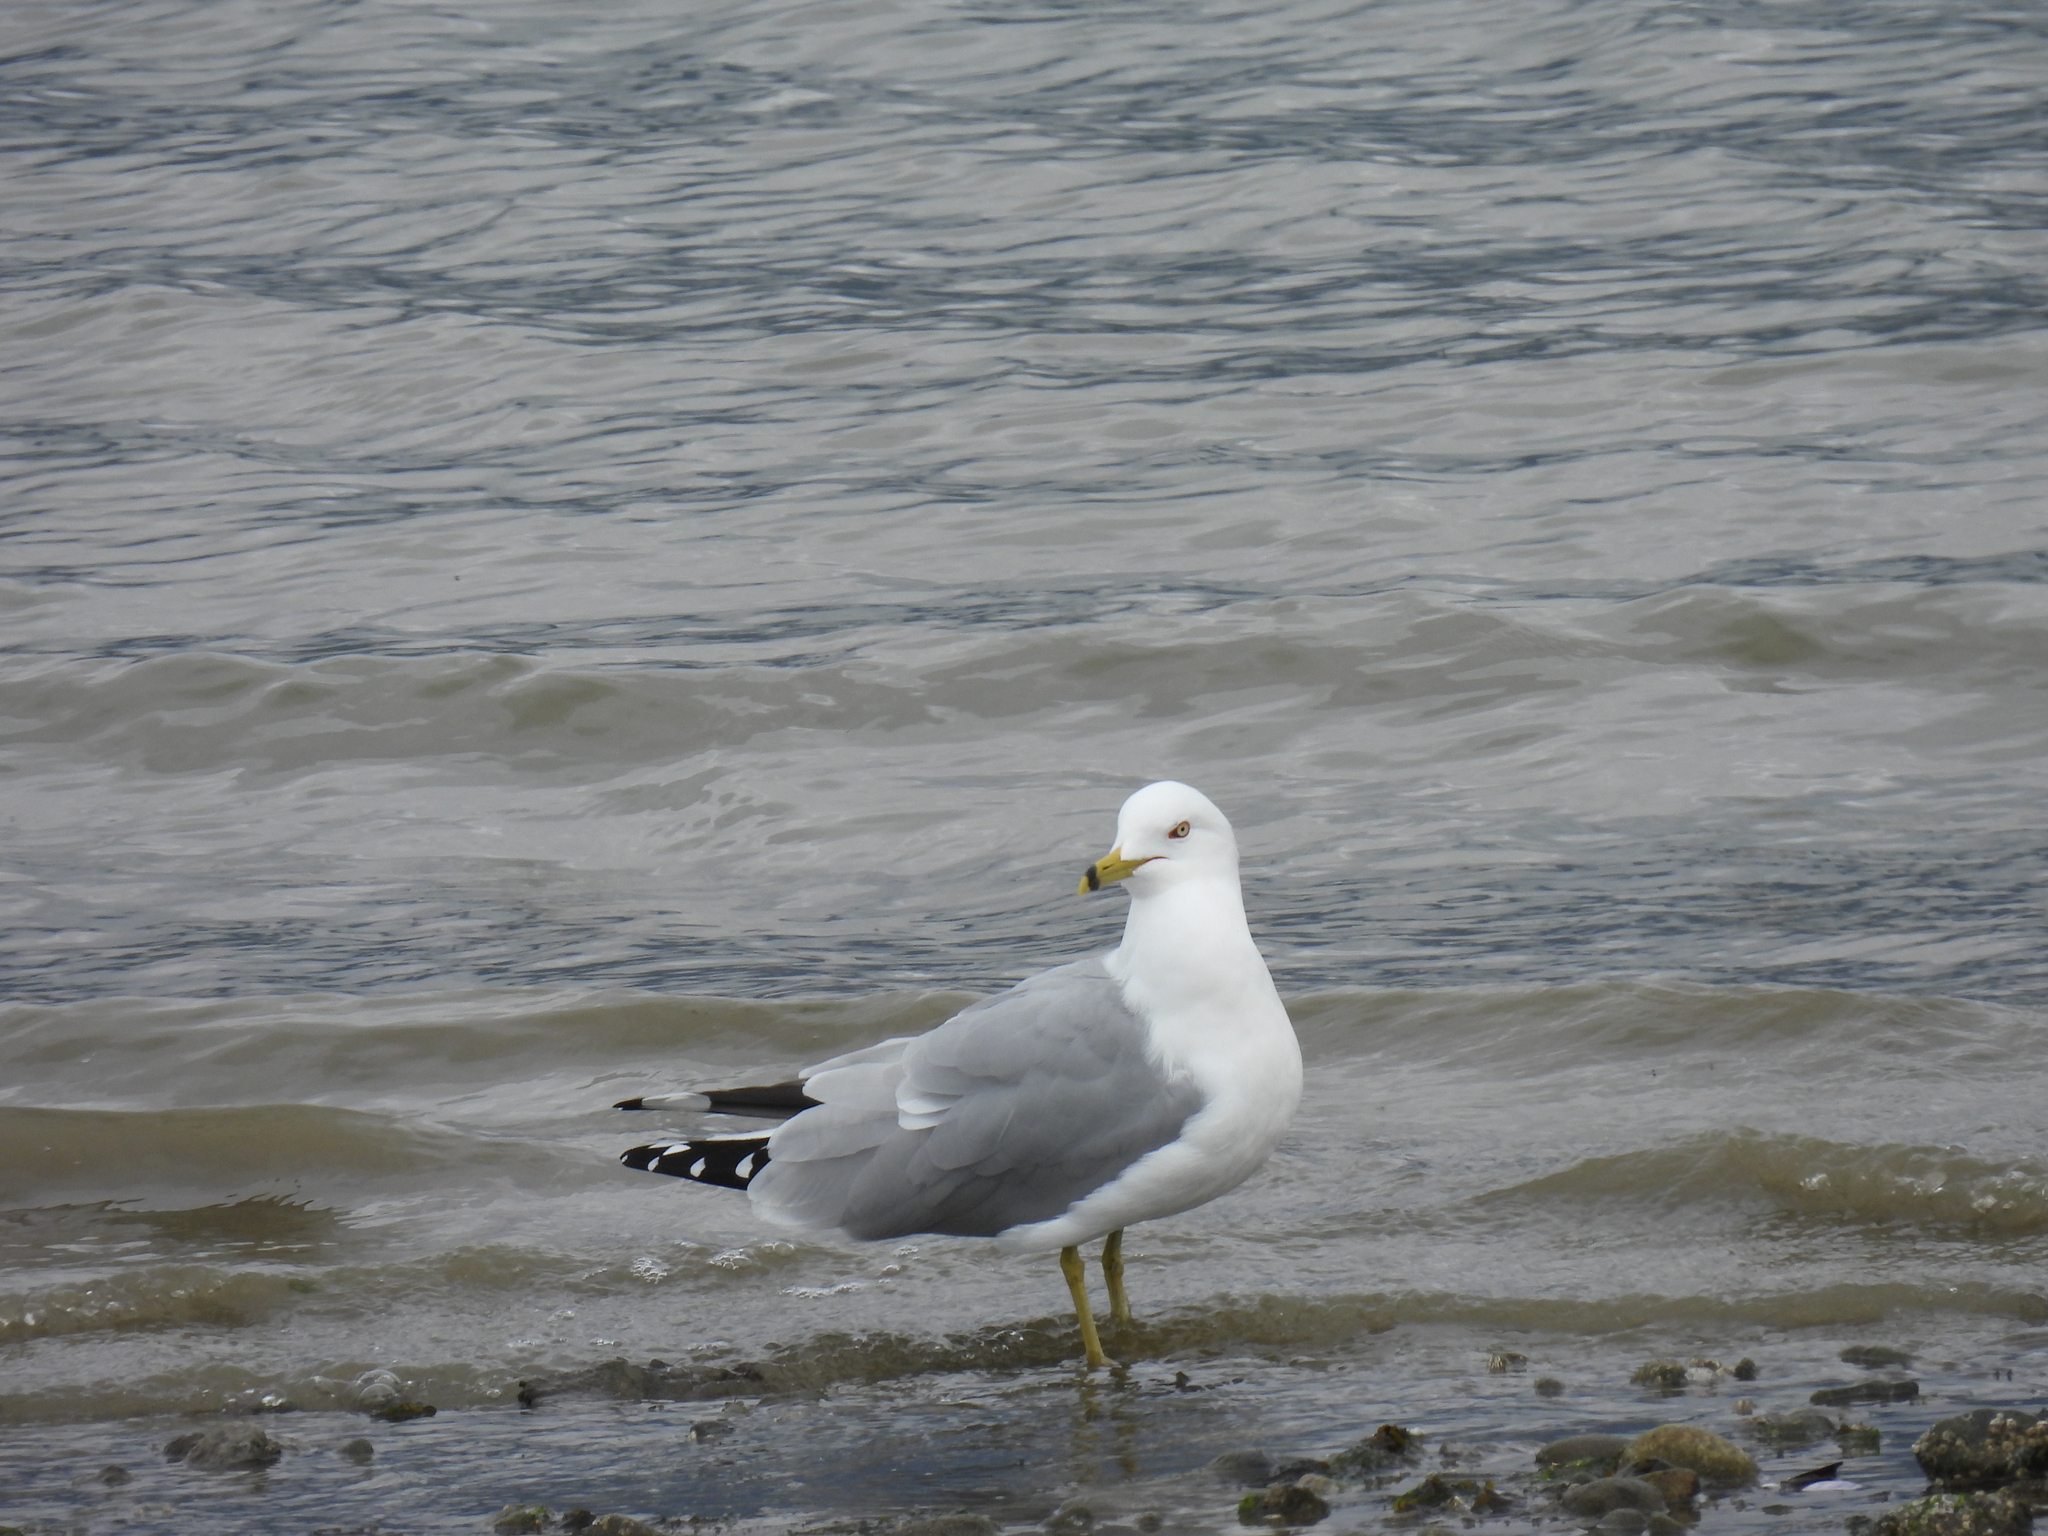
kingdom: Animalia
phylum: Chordata
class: Aves
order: Charadriiformes
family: Laridae
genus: Larus
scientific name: Larus delawarensis
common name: Ring-billed gull
